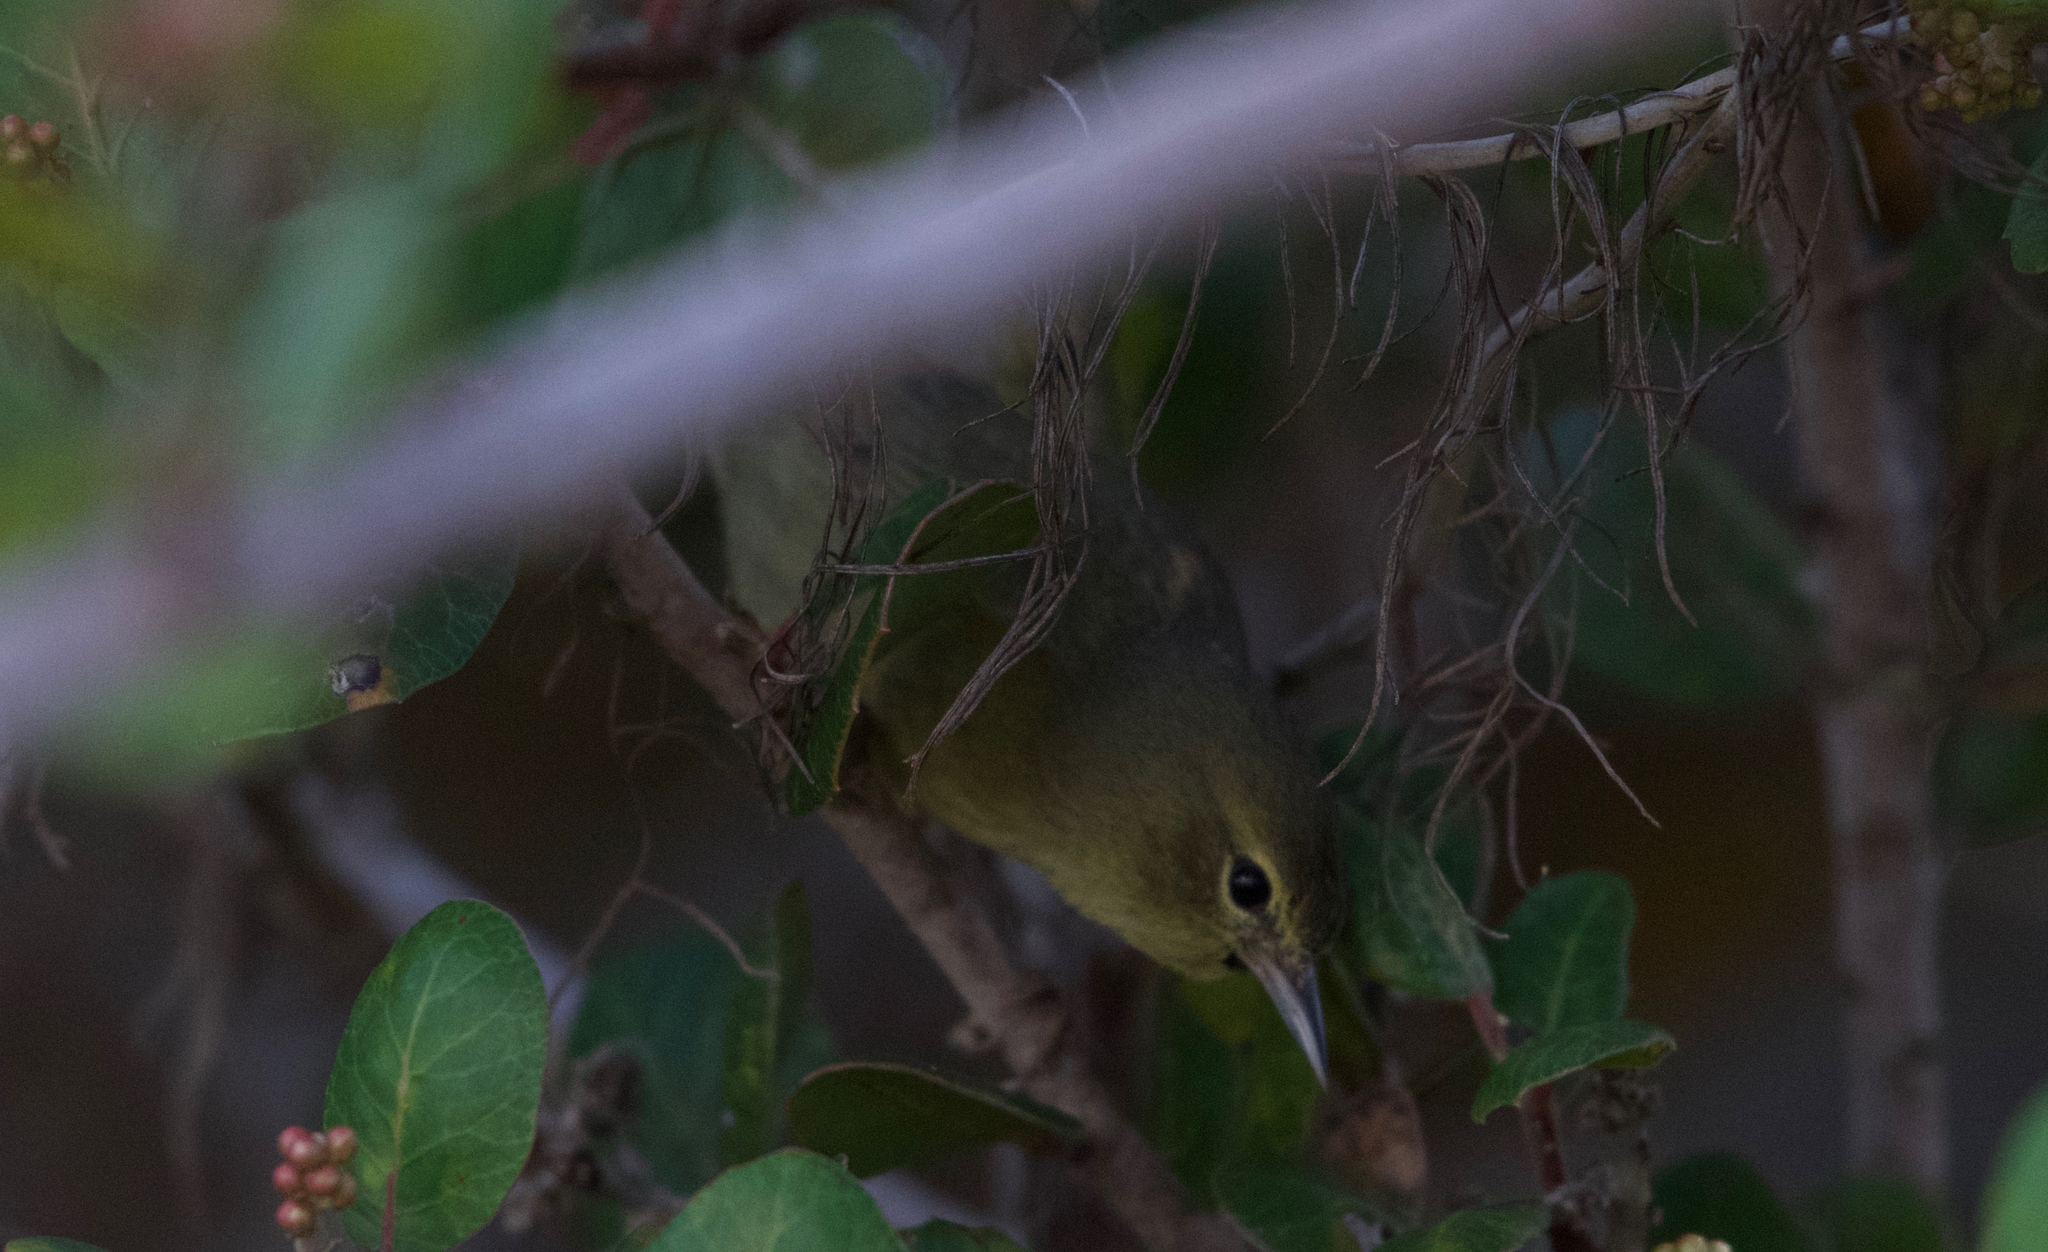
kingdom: Animalia
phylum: Chordata
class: Aves
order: Passeriformes
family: Parulidae
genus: Leiothlypis
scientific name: Leiothlypis celata
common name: Orange-crowned warbler
